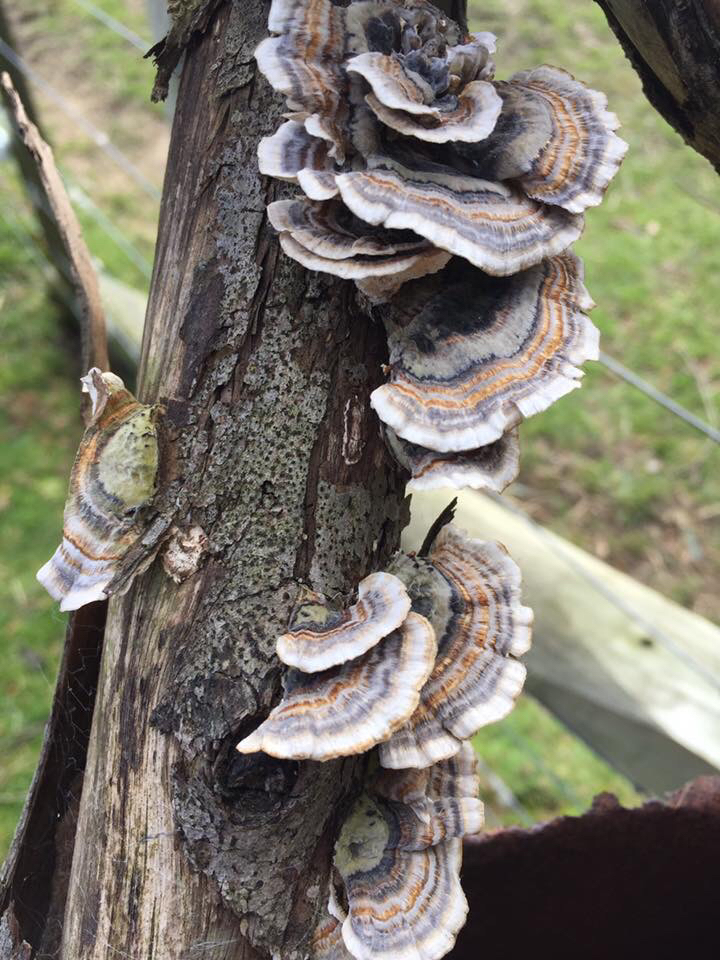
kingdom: Fungi
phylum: Basidiomycota
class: Agaricomycetes
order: Polyporales
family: Polyporaceae
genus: Trametes
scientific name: Trametes versicolor
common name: Turkeytail
